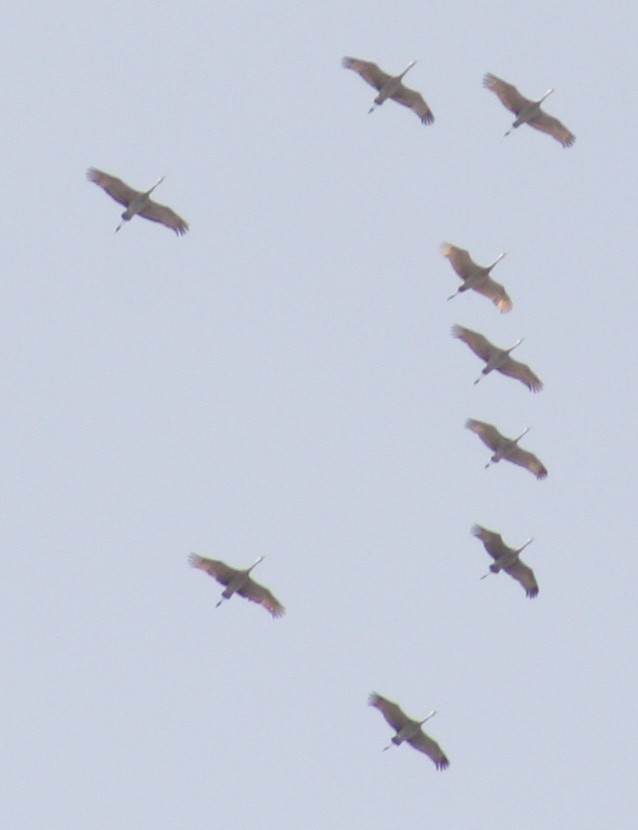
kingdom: Animalia
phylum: Chordata
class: Aves
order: Gruiformes
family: Gruidae
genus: Grus
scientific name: Grus canadensis
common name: Sandhill crane
